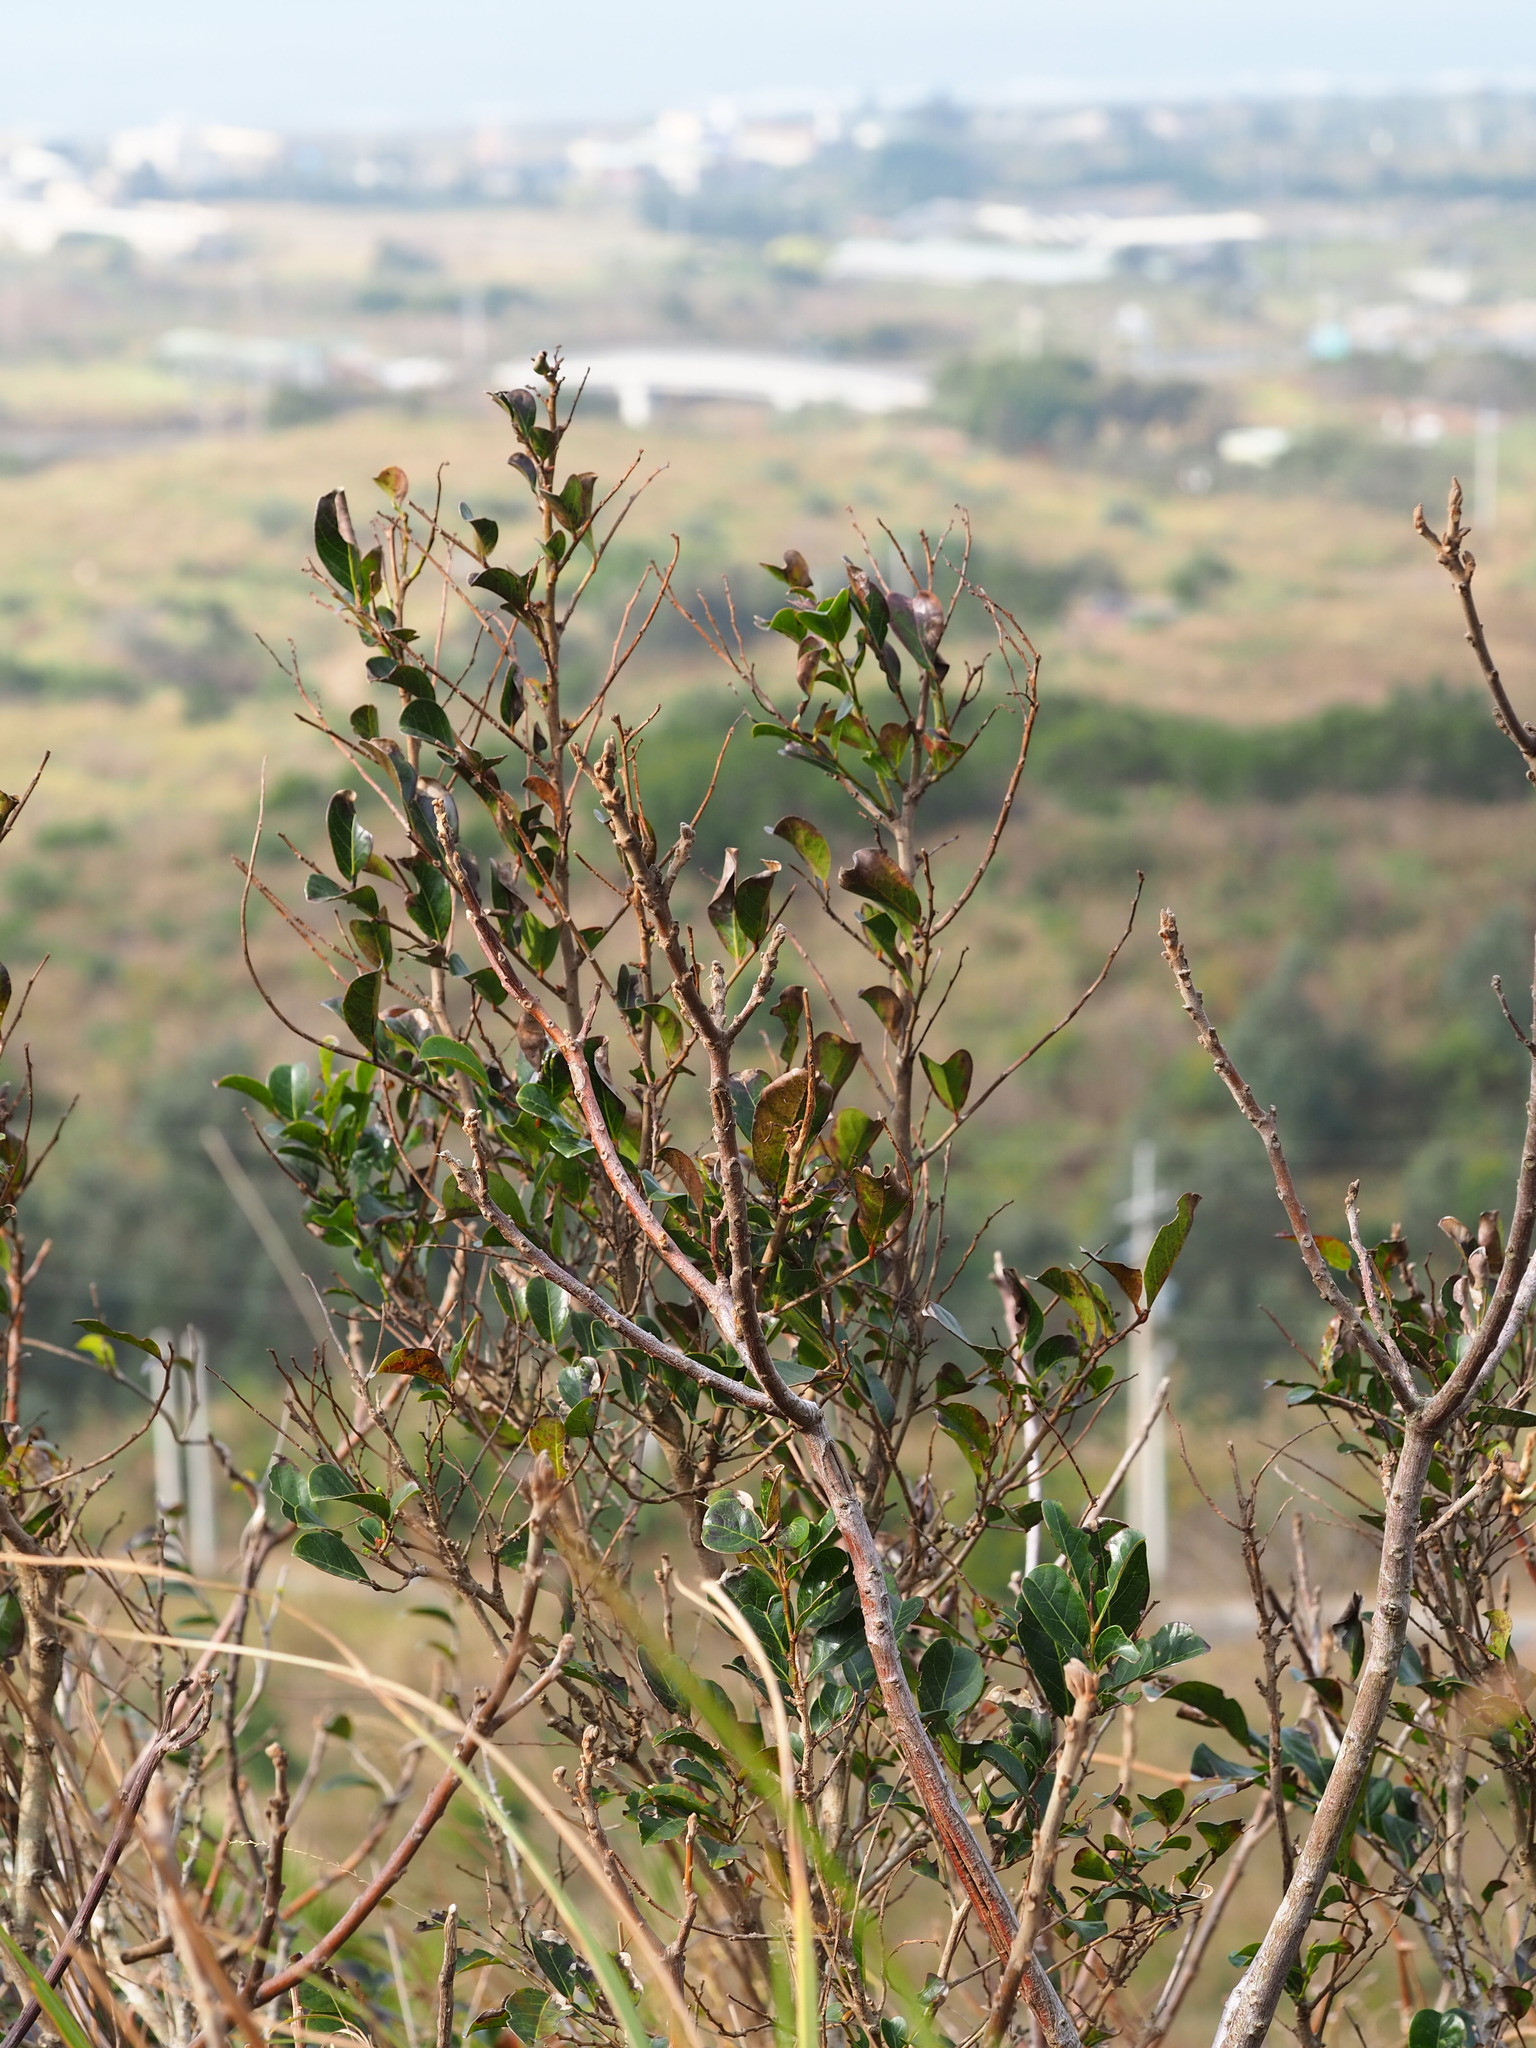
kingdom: Plantae
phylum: Tracheophyta
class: Magnoliopsida
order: Malpighiales
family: Phyllanthaceae
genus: Glochidion
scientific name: Glochidion rubrum
